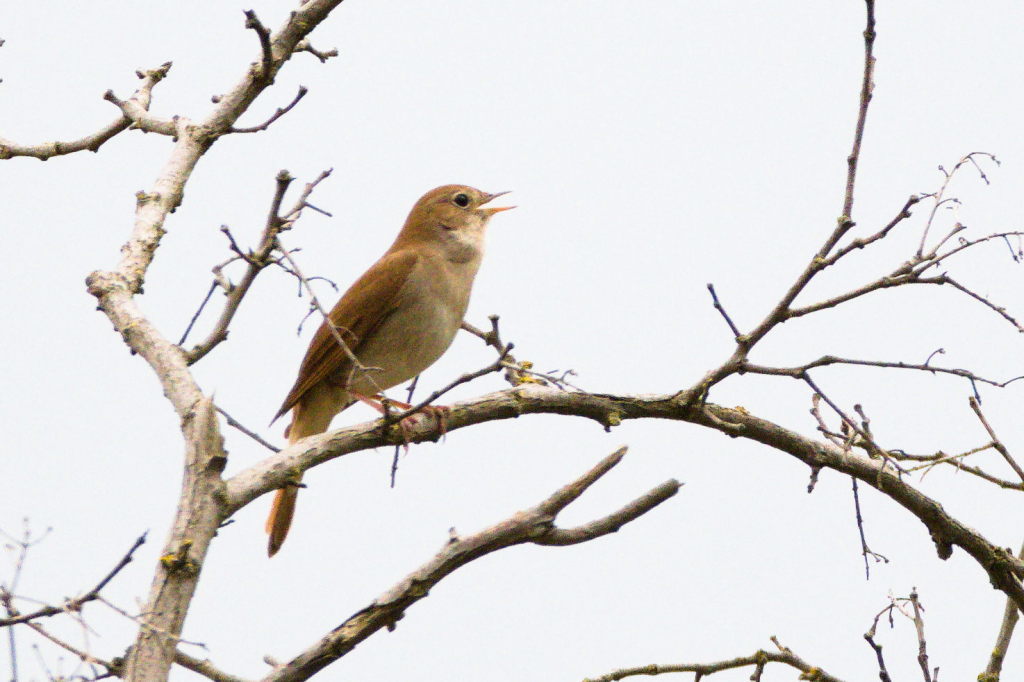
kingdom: Animalia
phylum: Chordata
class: Aves
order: Passeriformes
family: Muscicapidae
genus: Luscinia
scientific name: Luscinia megarhynchos
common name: Common nightingale
